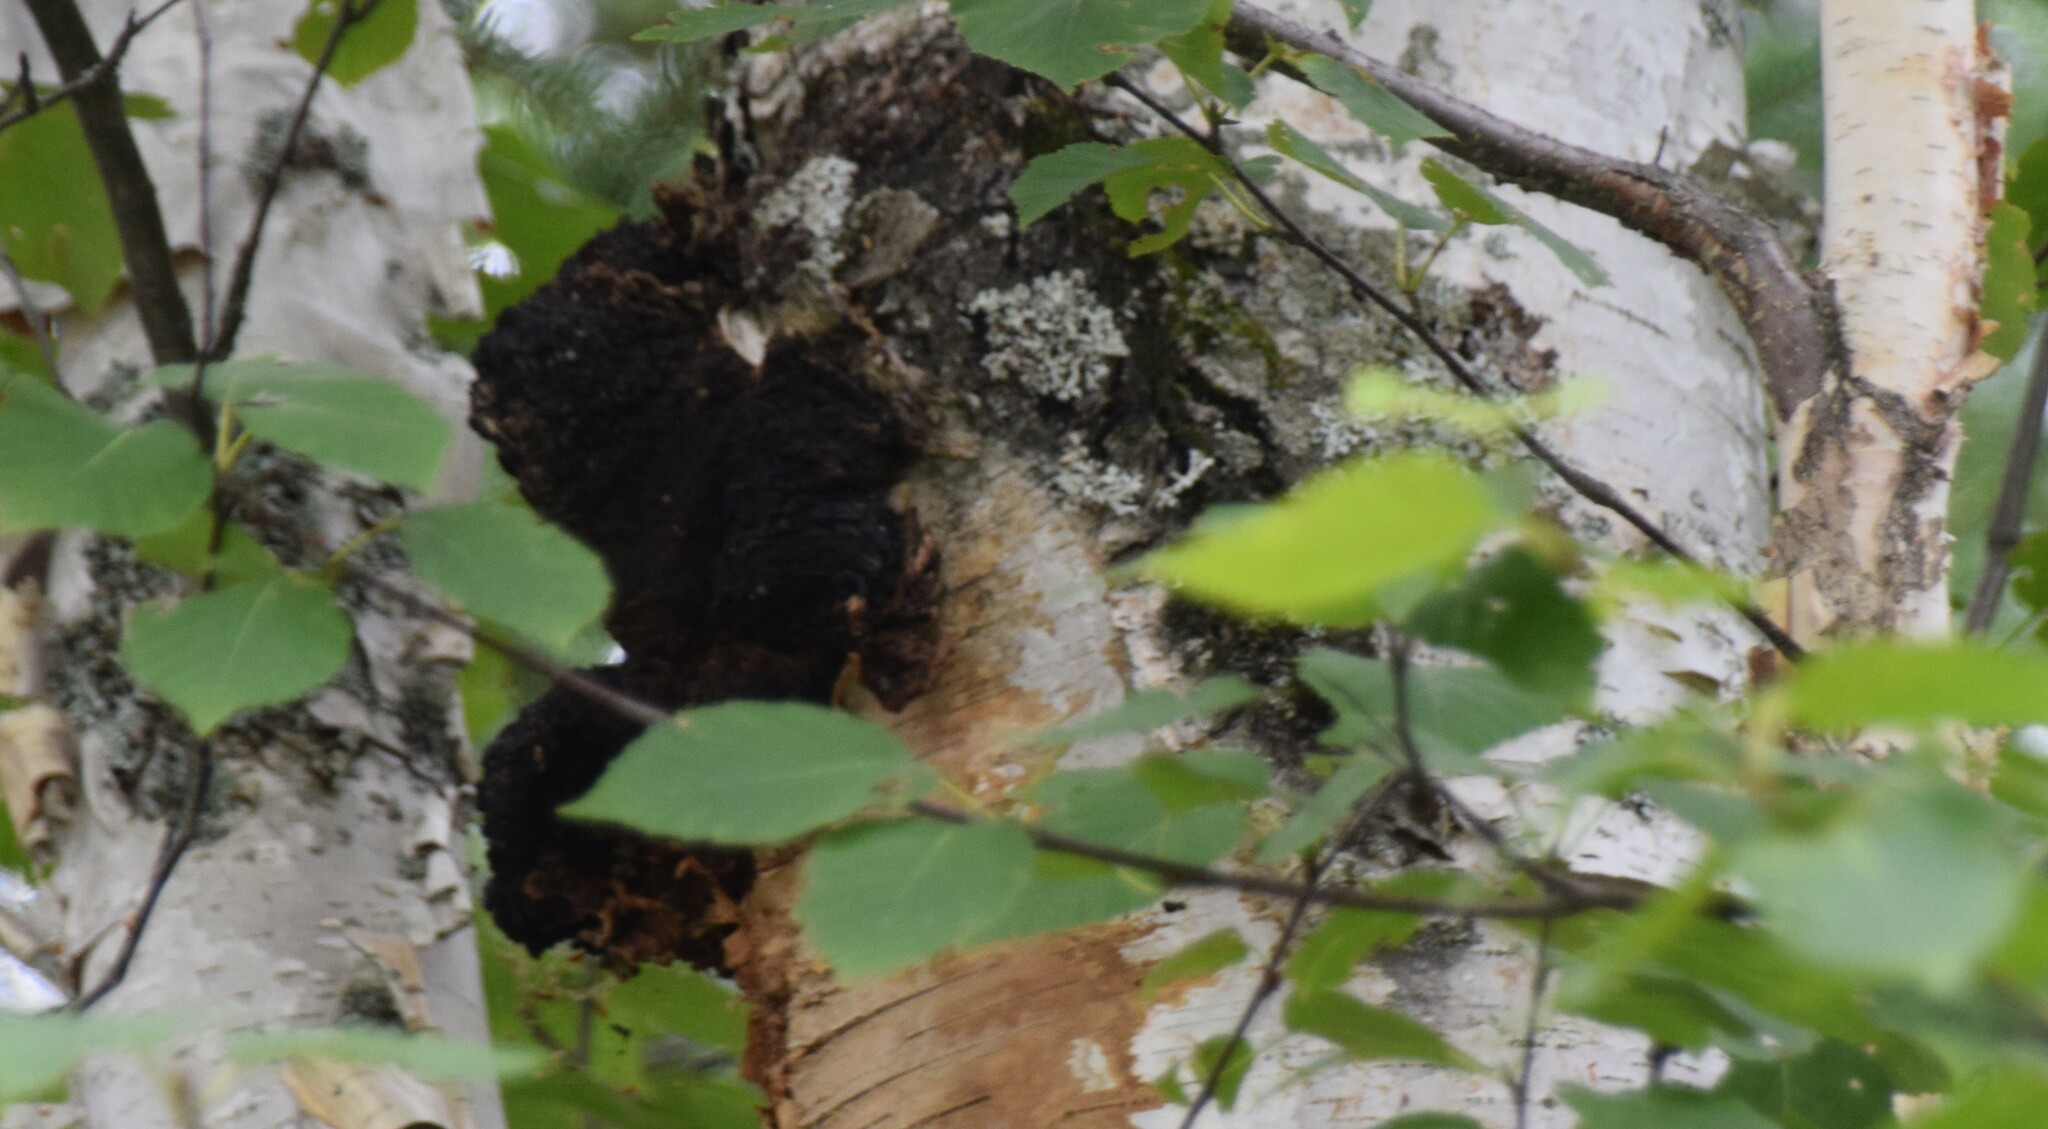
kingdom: Fungi
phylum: Basidiomycota
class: Agaricomycetes
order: Hymenochaetales
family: Hymenochaetaceae
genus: Inonotus
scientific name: Inonotus obliquus
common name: Chaga
